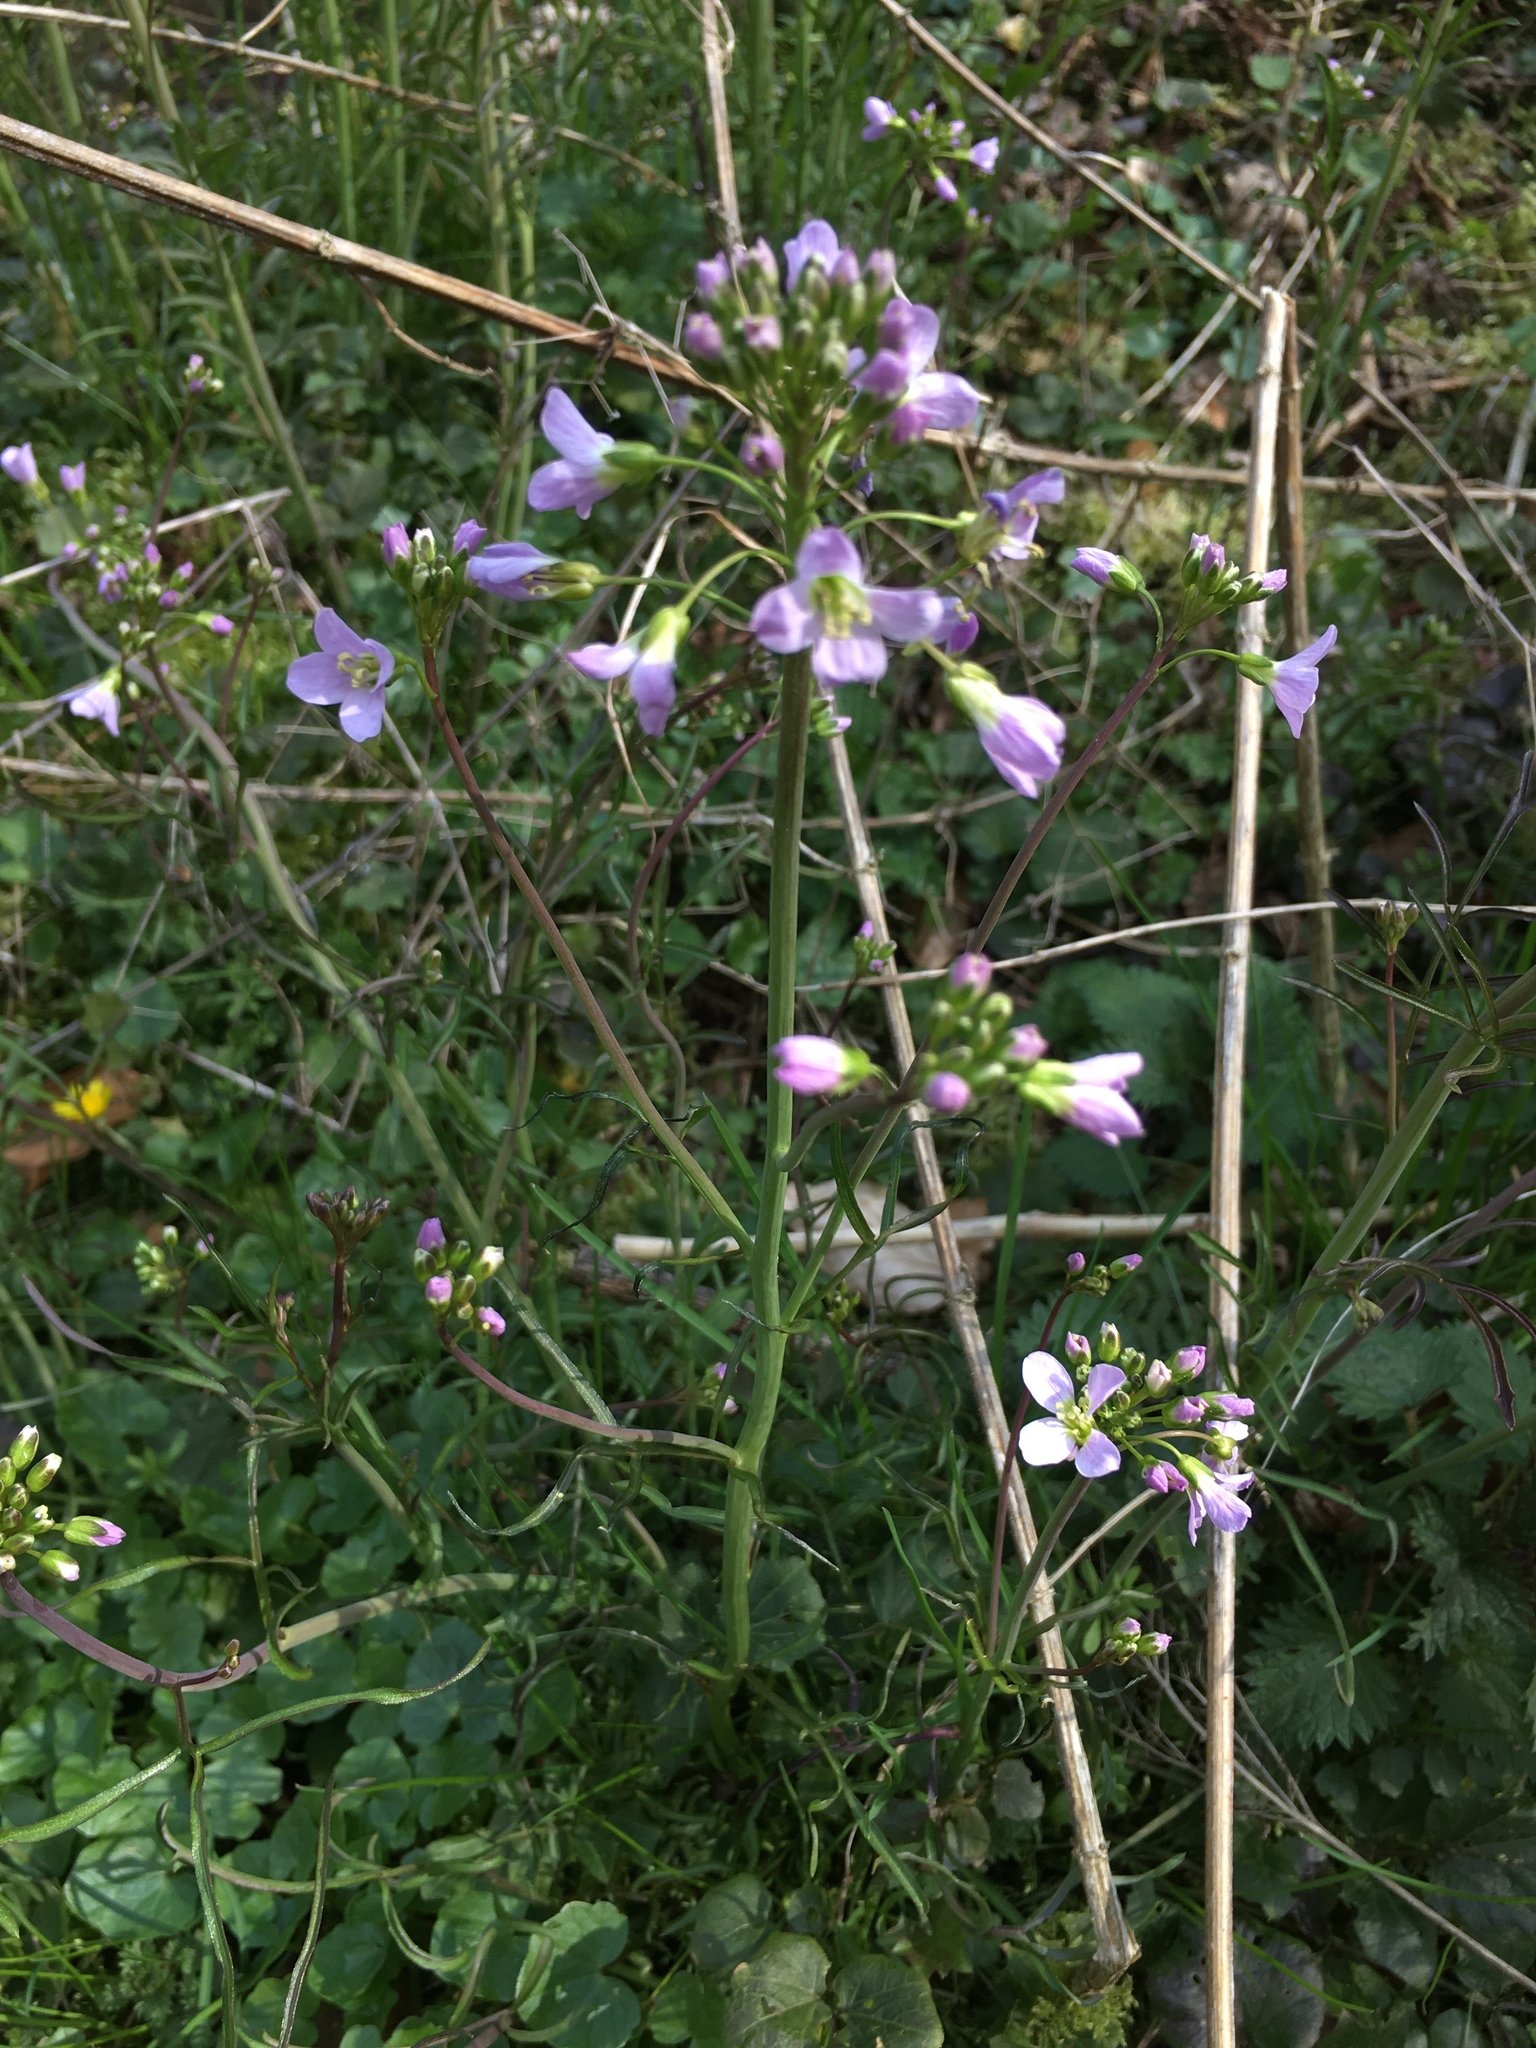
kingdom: Plantae
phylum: Tracheophyta
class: Magnoliopsida
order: Brassicales
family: Brassicaceae
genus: Cardamine
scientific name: Cardamine pratensis
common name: Cuckoo flower
